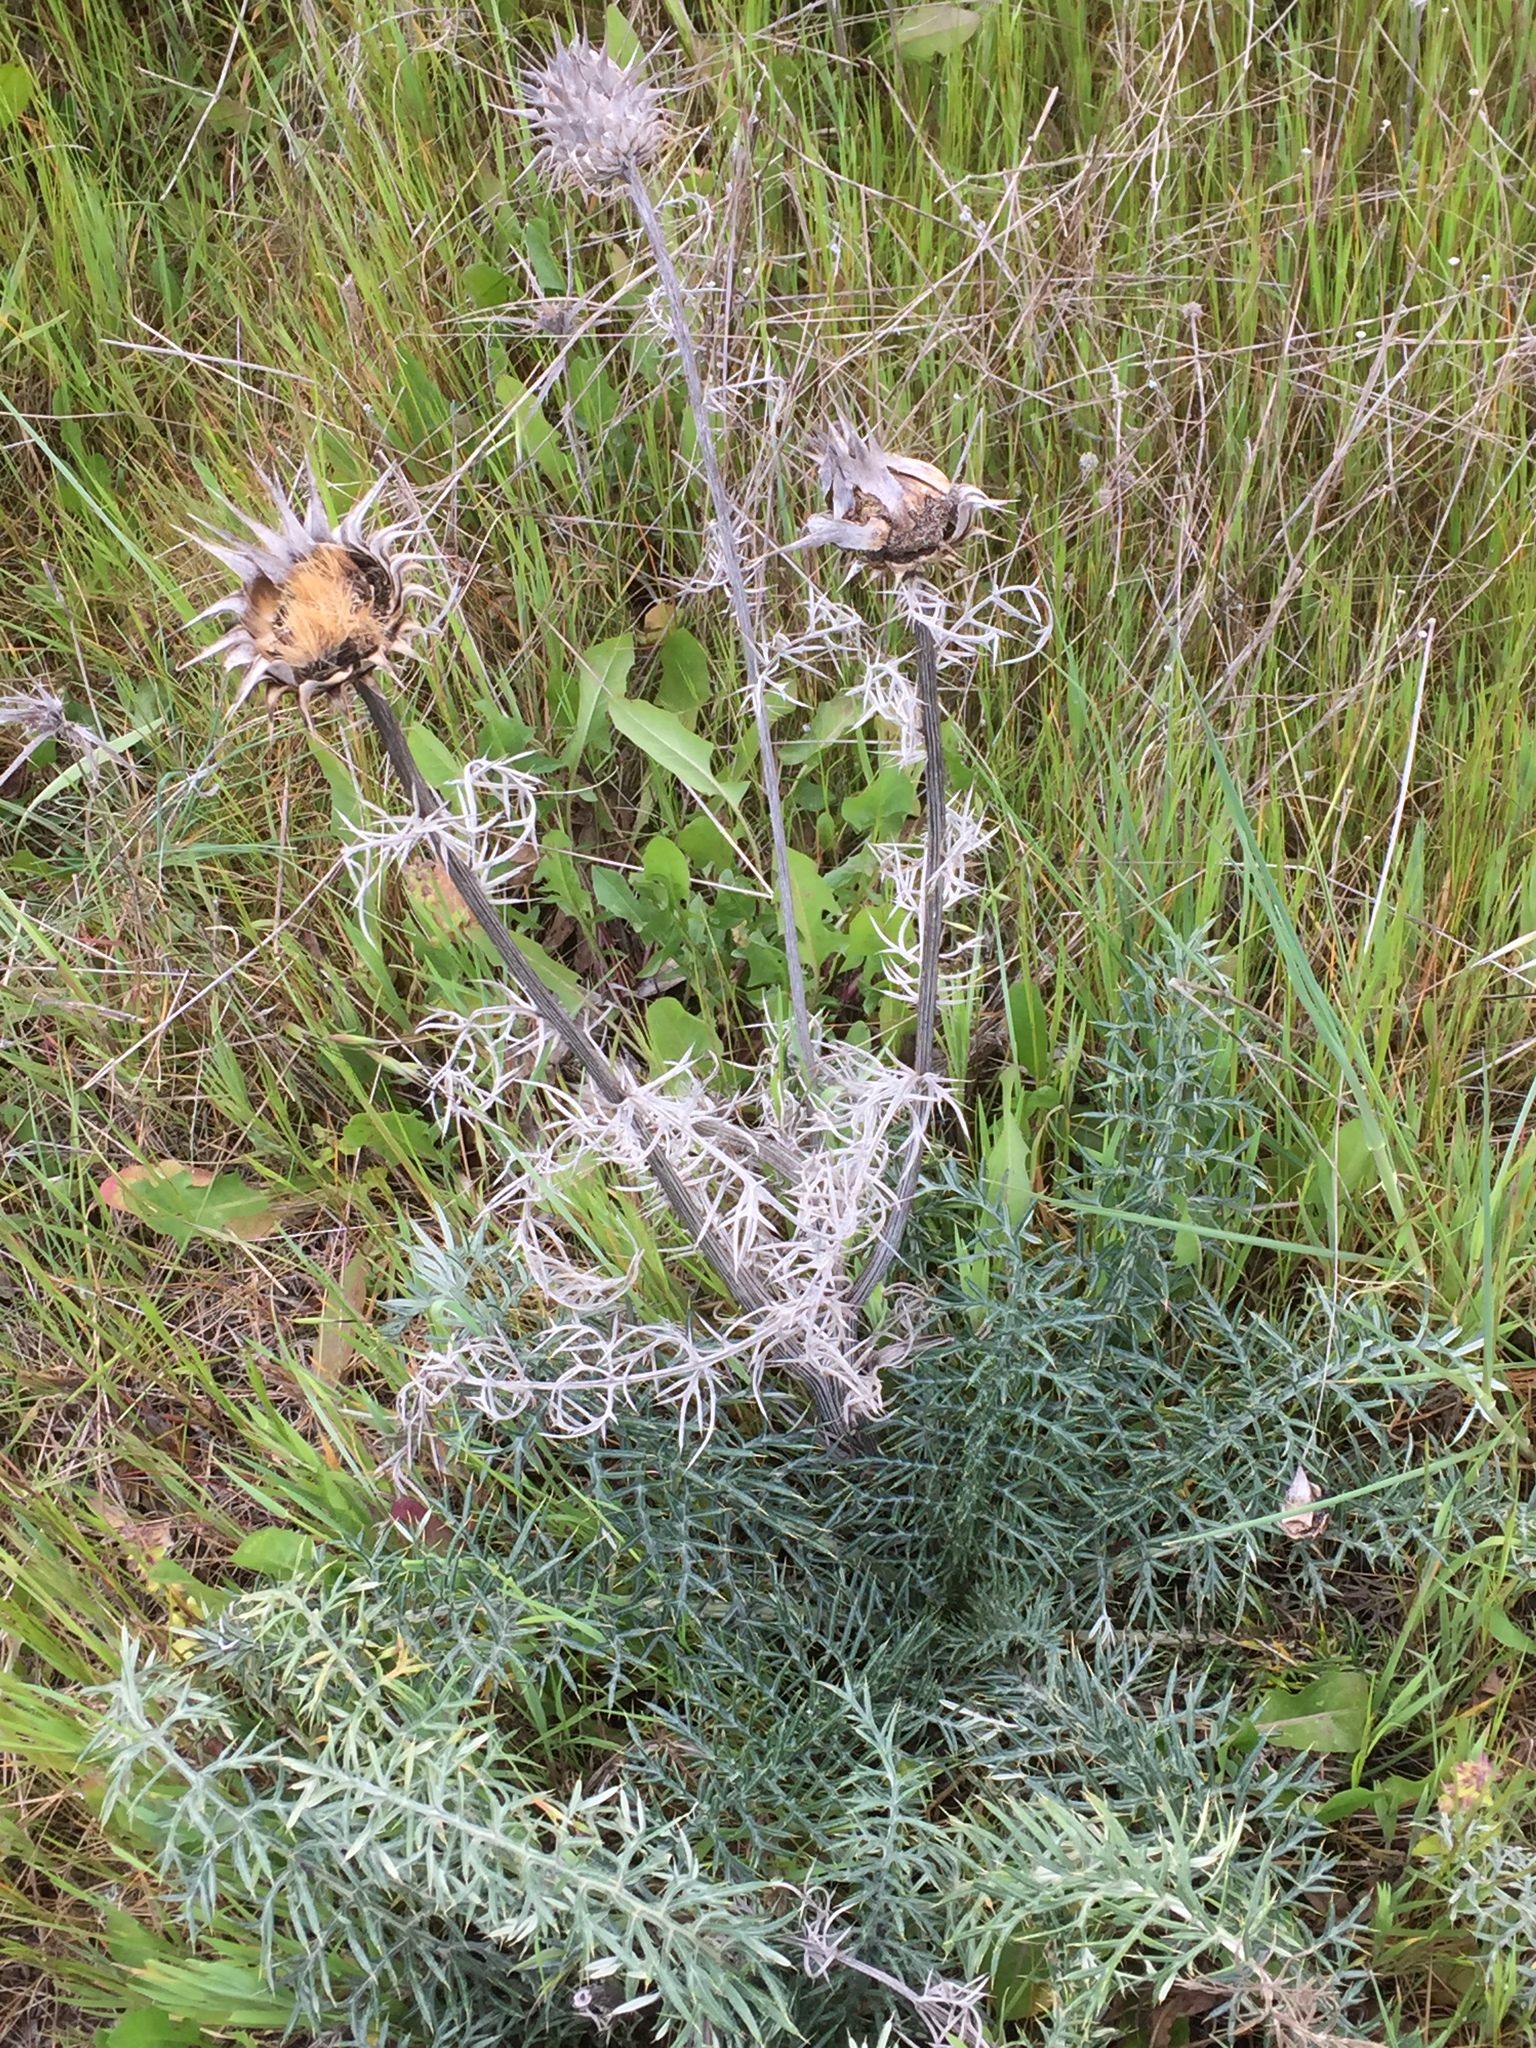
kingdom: Plantae
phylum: Tracheophyta
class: Magnoliopsida
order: Asterales
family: Asteraceae
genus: Cynara
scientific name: Cynara humilis
